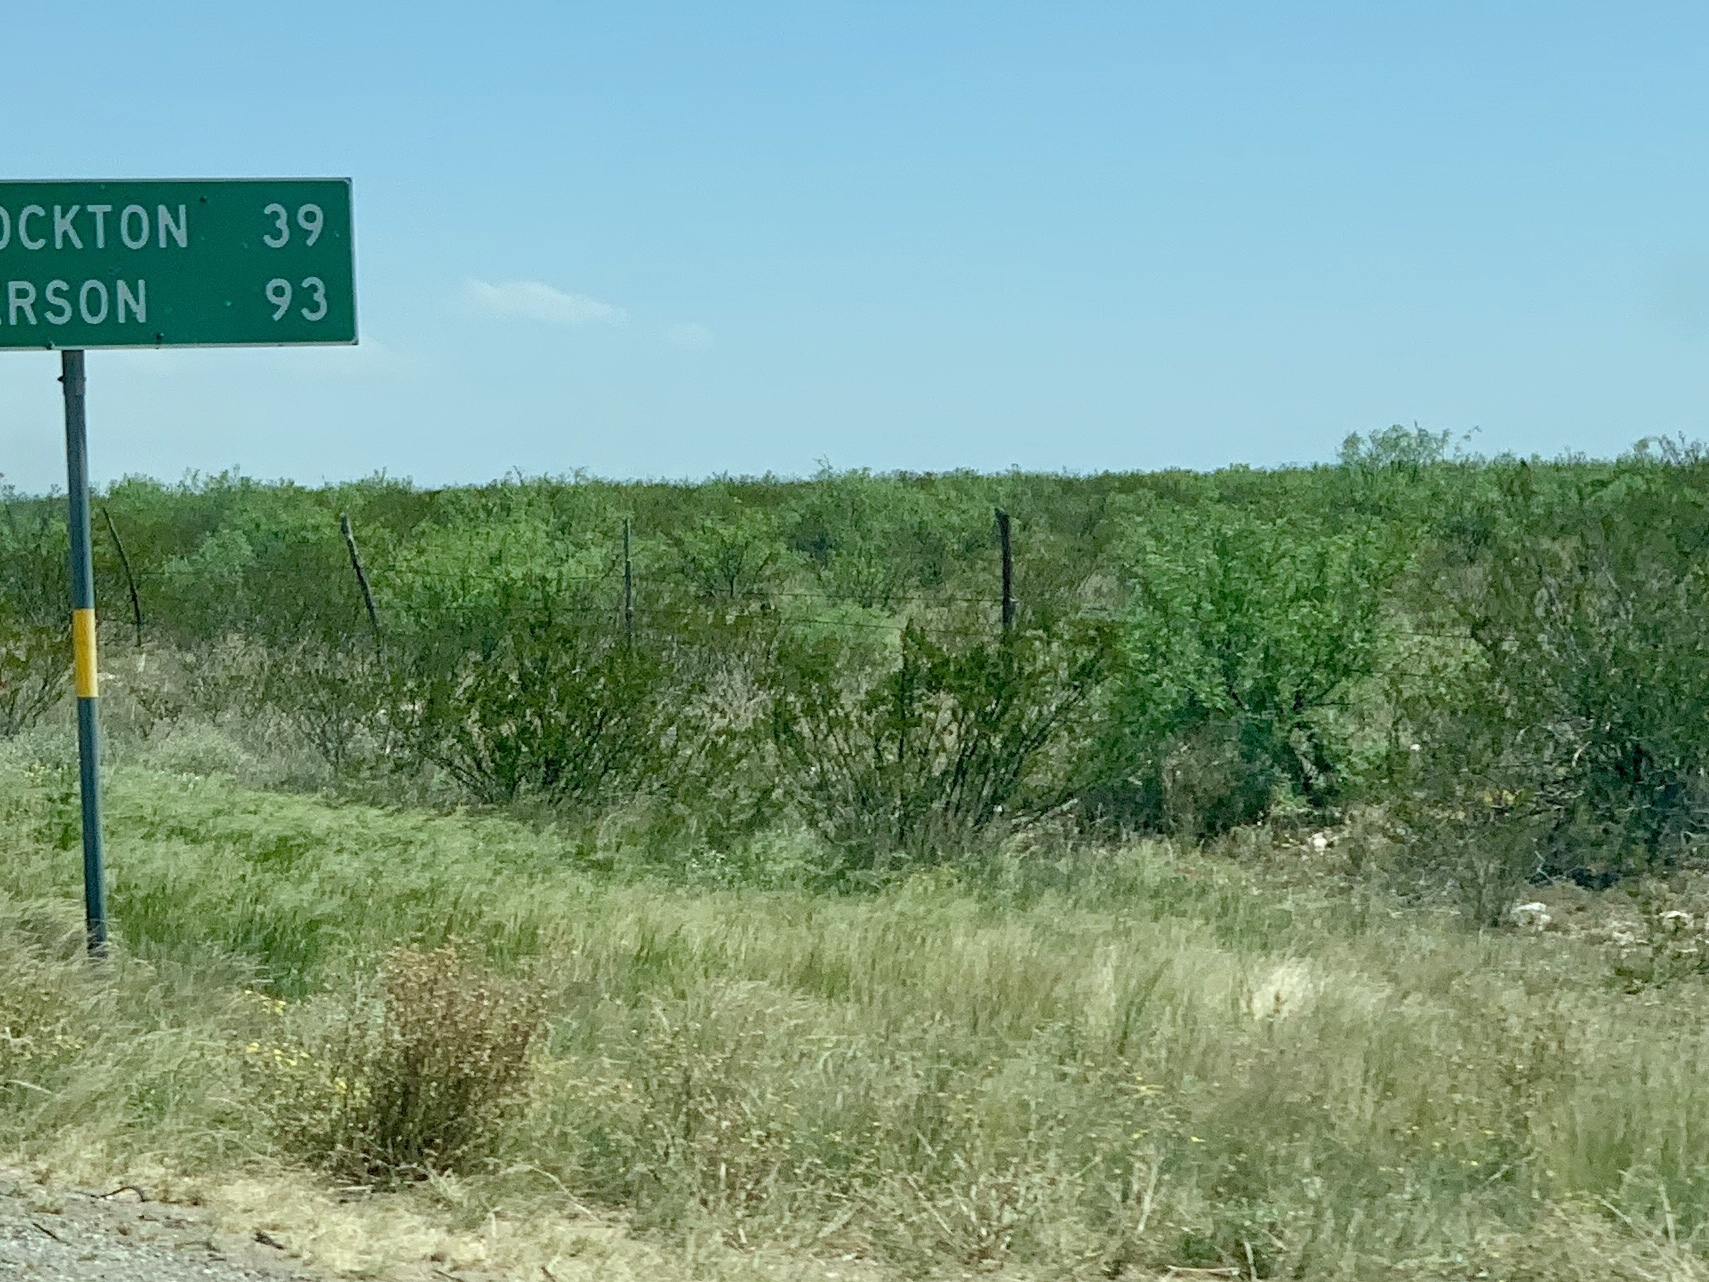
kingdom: Plantae
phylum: Tracheophyta
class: Magnoliopsida
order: Zygophyllales
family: Zygophyllaceae
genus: Larrea
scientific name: Larrea tridentata
